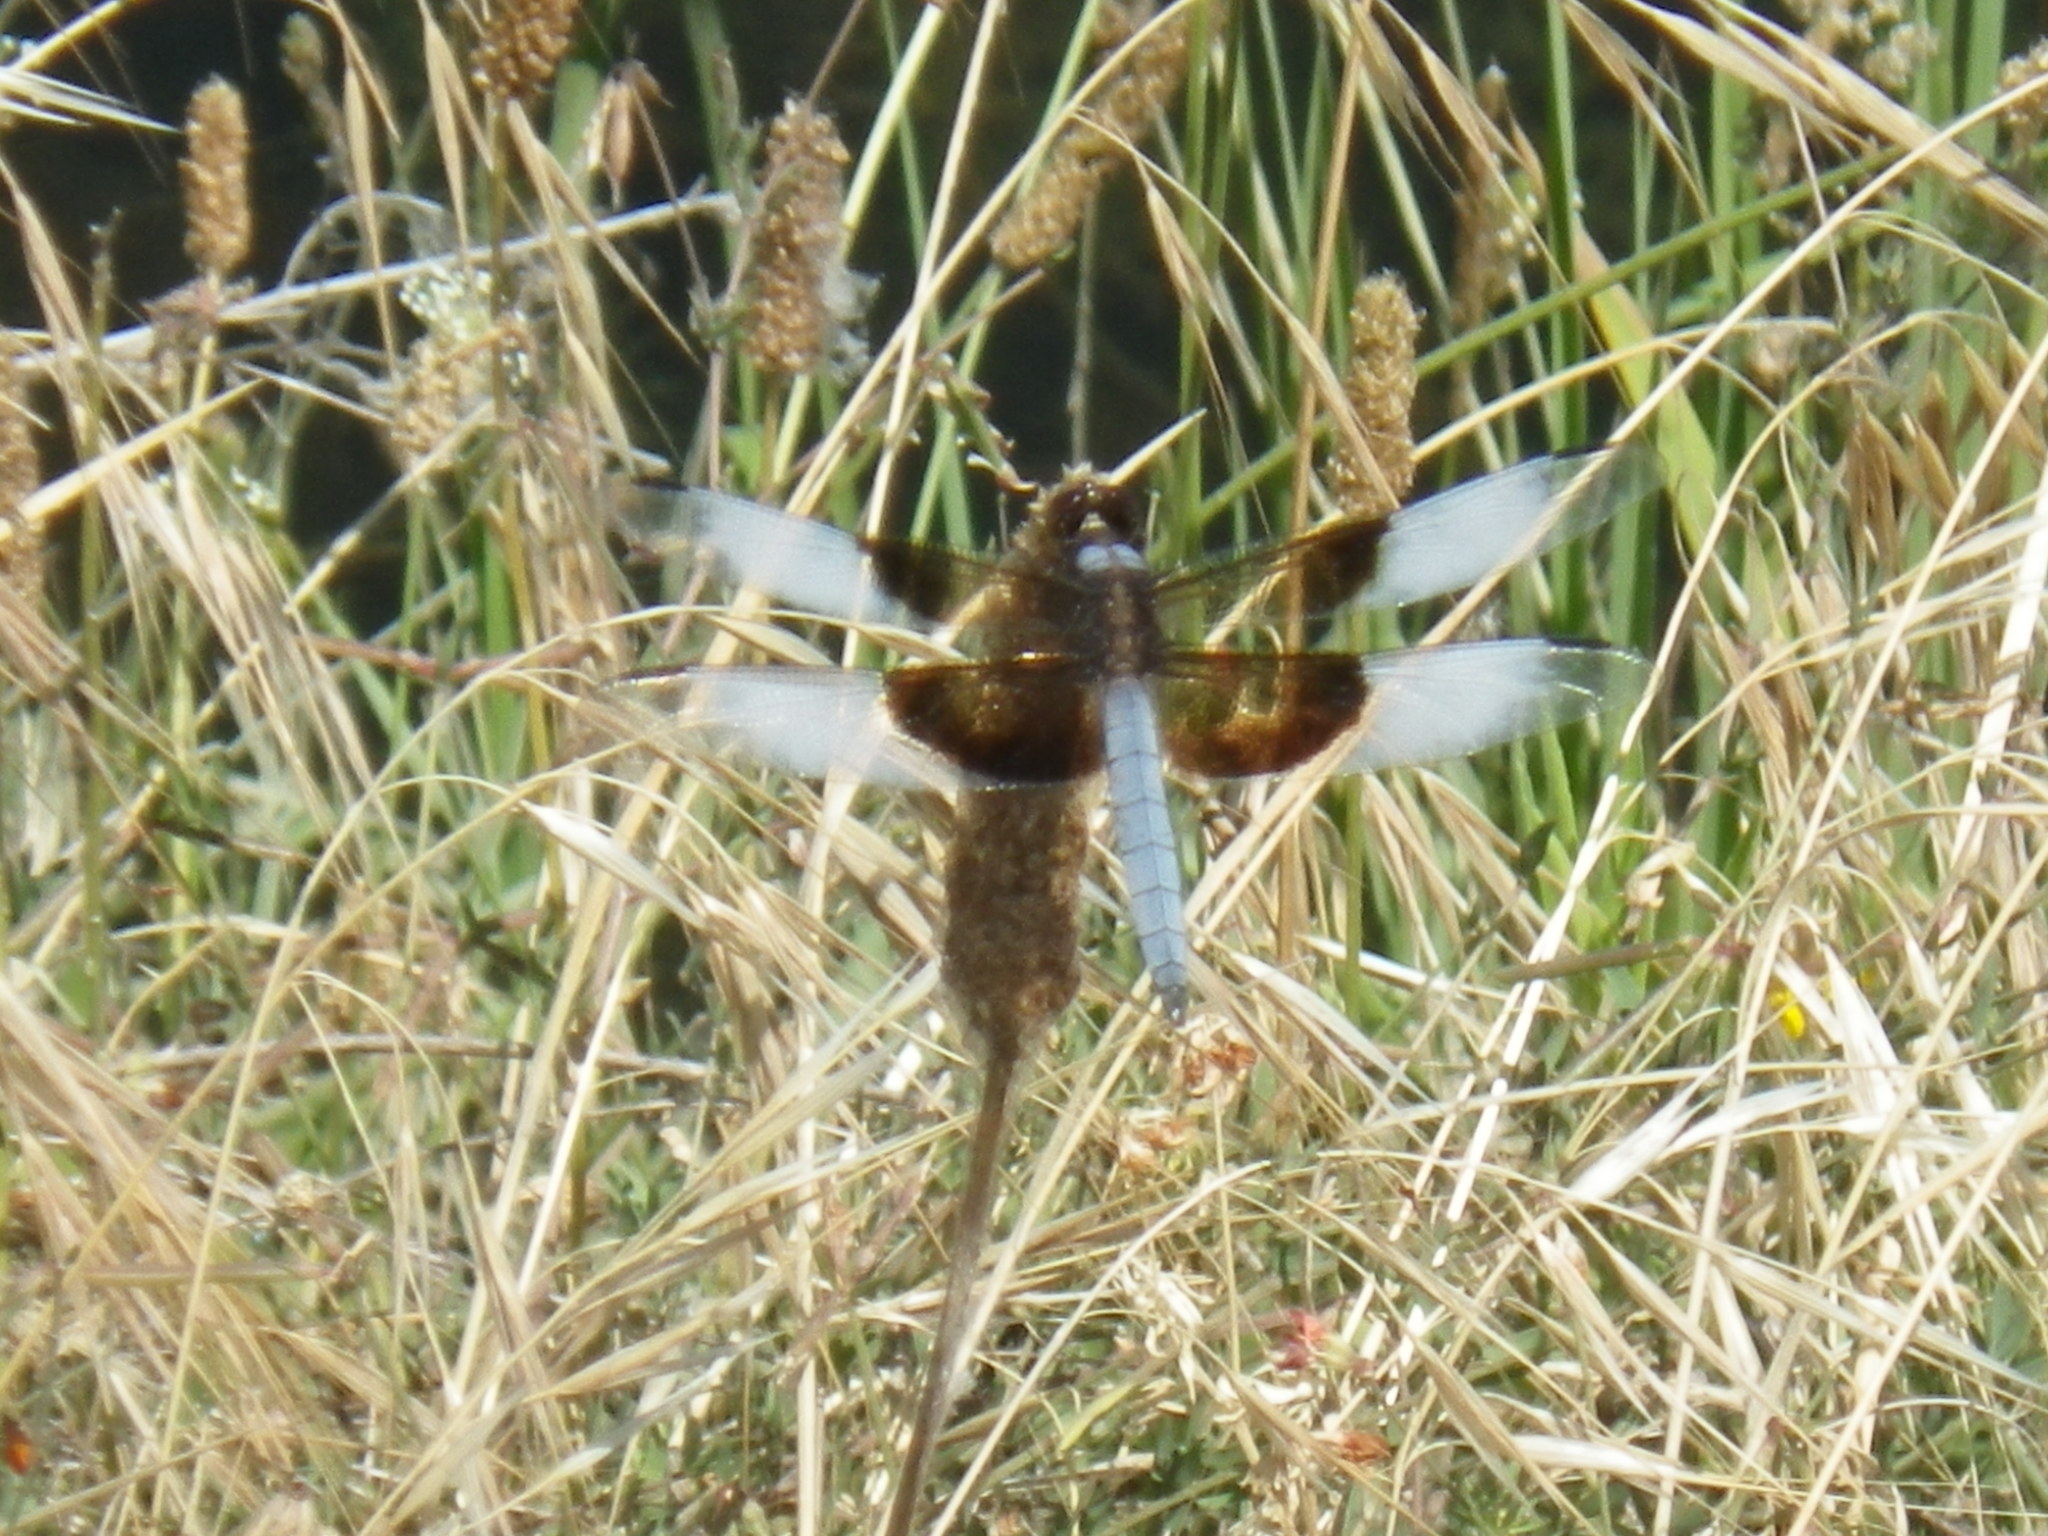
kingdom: Animalia
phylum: Arthropoda
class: Insecta
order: Odonata
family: Libellulidae
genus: Libellula
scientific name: Libellula luctuosa
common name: Widow skimmer
